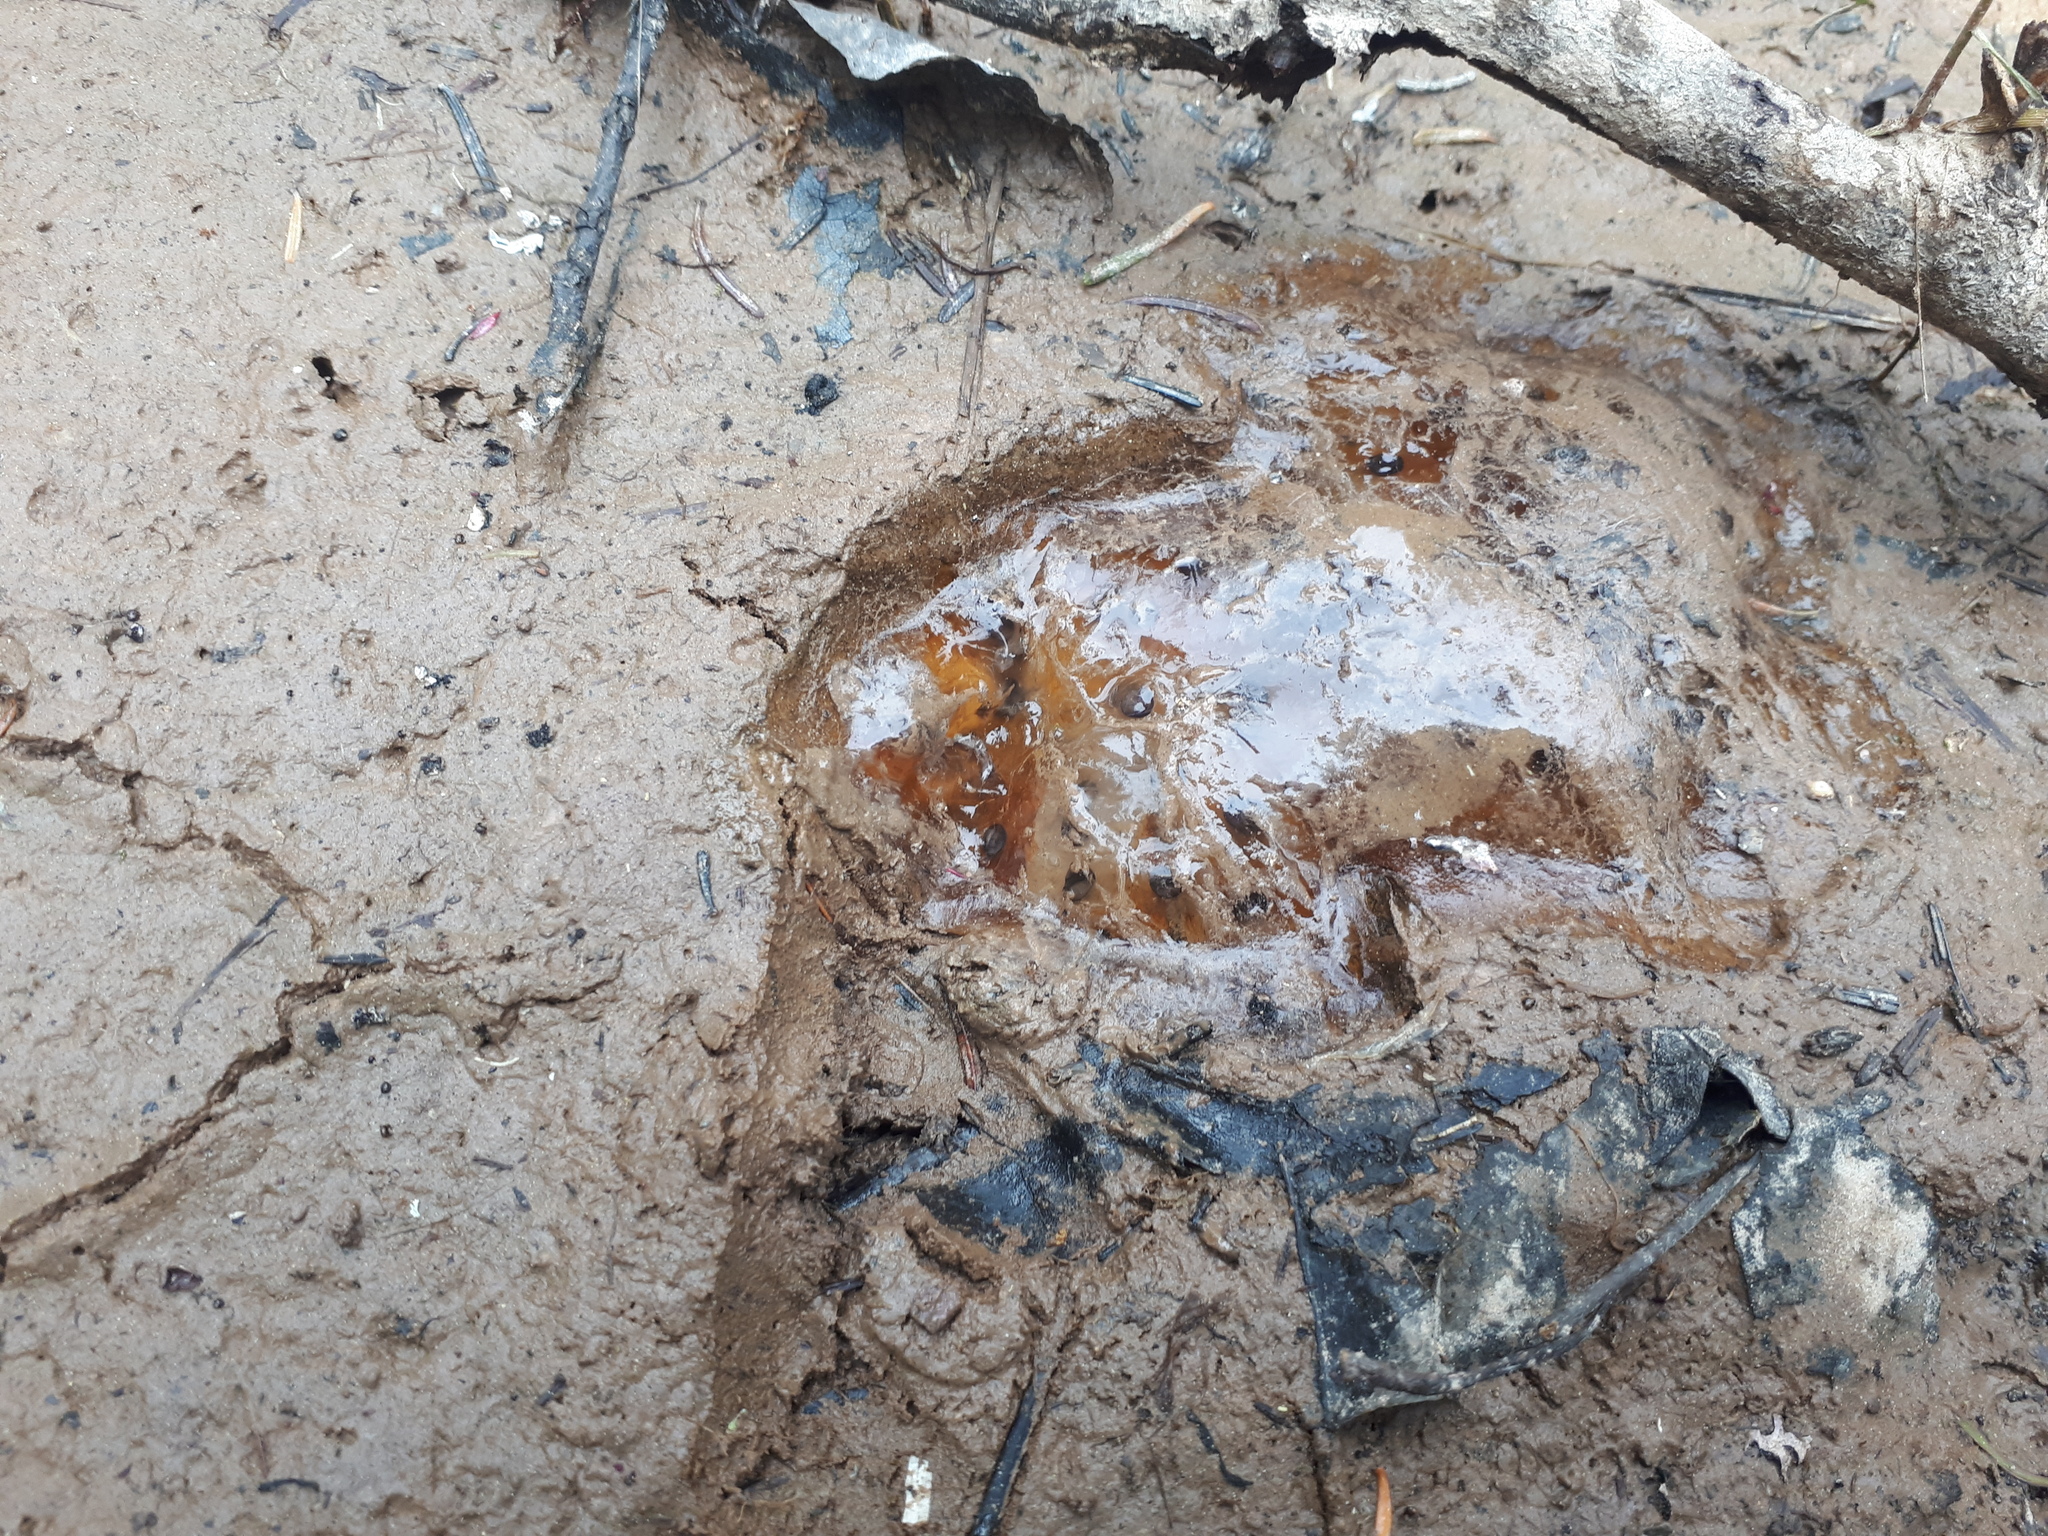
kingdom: Animalia
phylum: Chordata
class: Amphibia
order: Caudata
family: Ambystomatidae
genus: Ambystoma
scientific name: Ambystoma maculatum
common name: Spotted salamander
